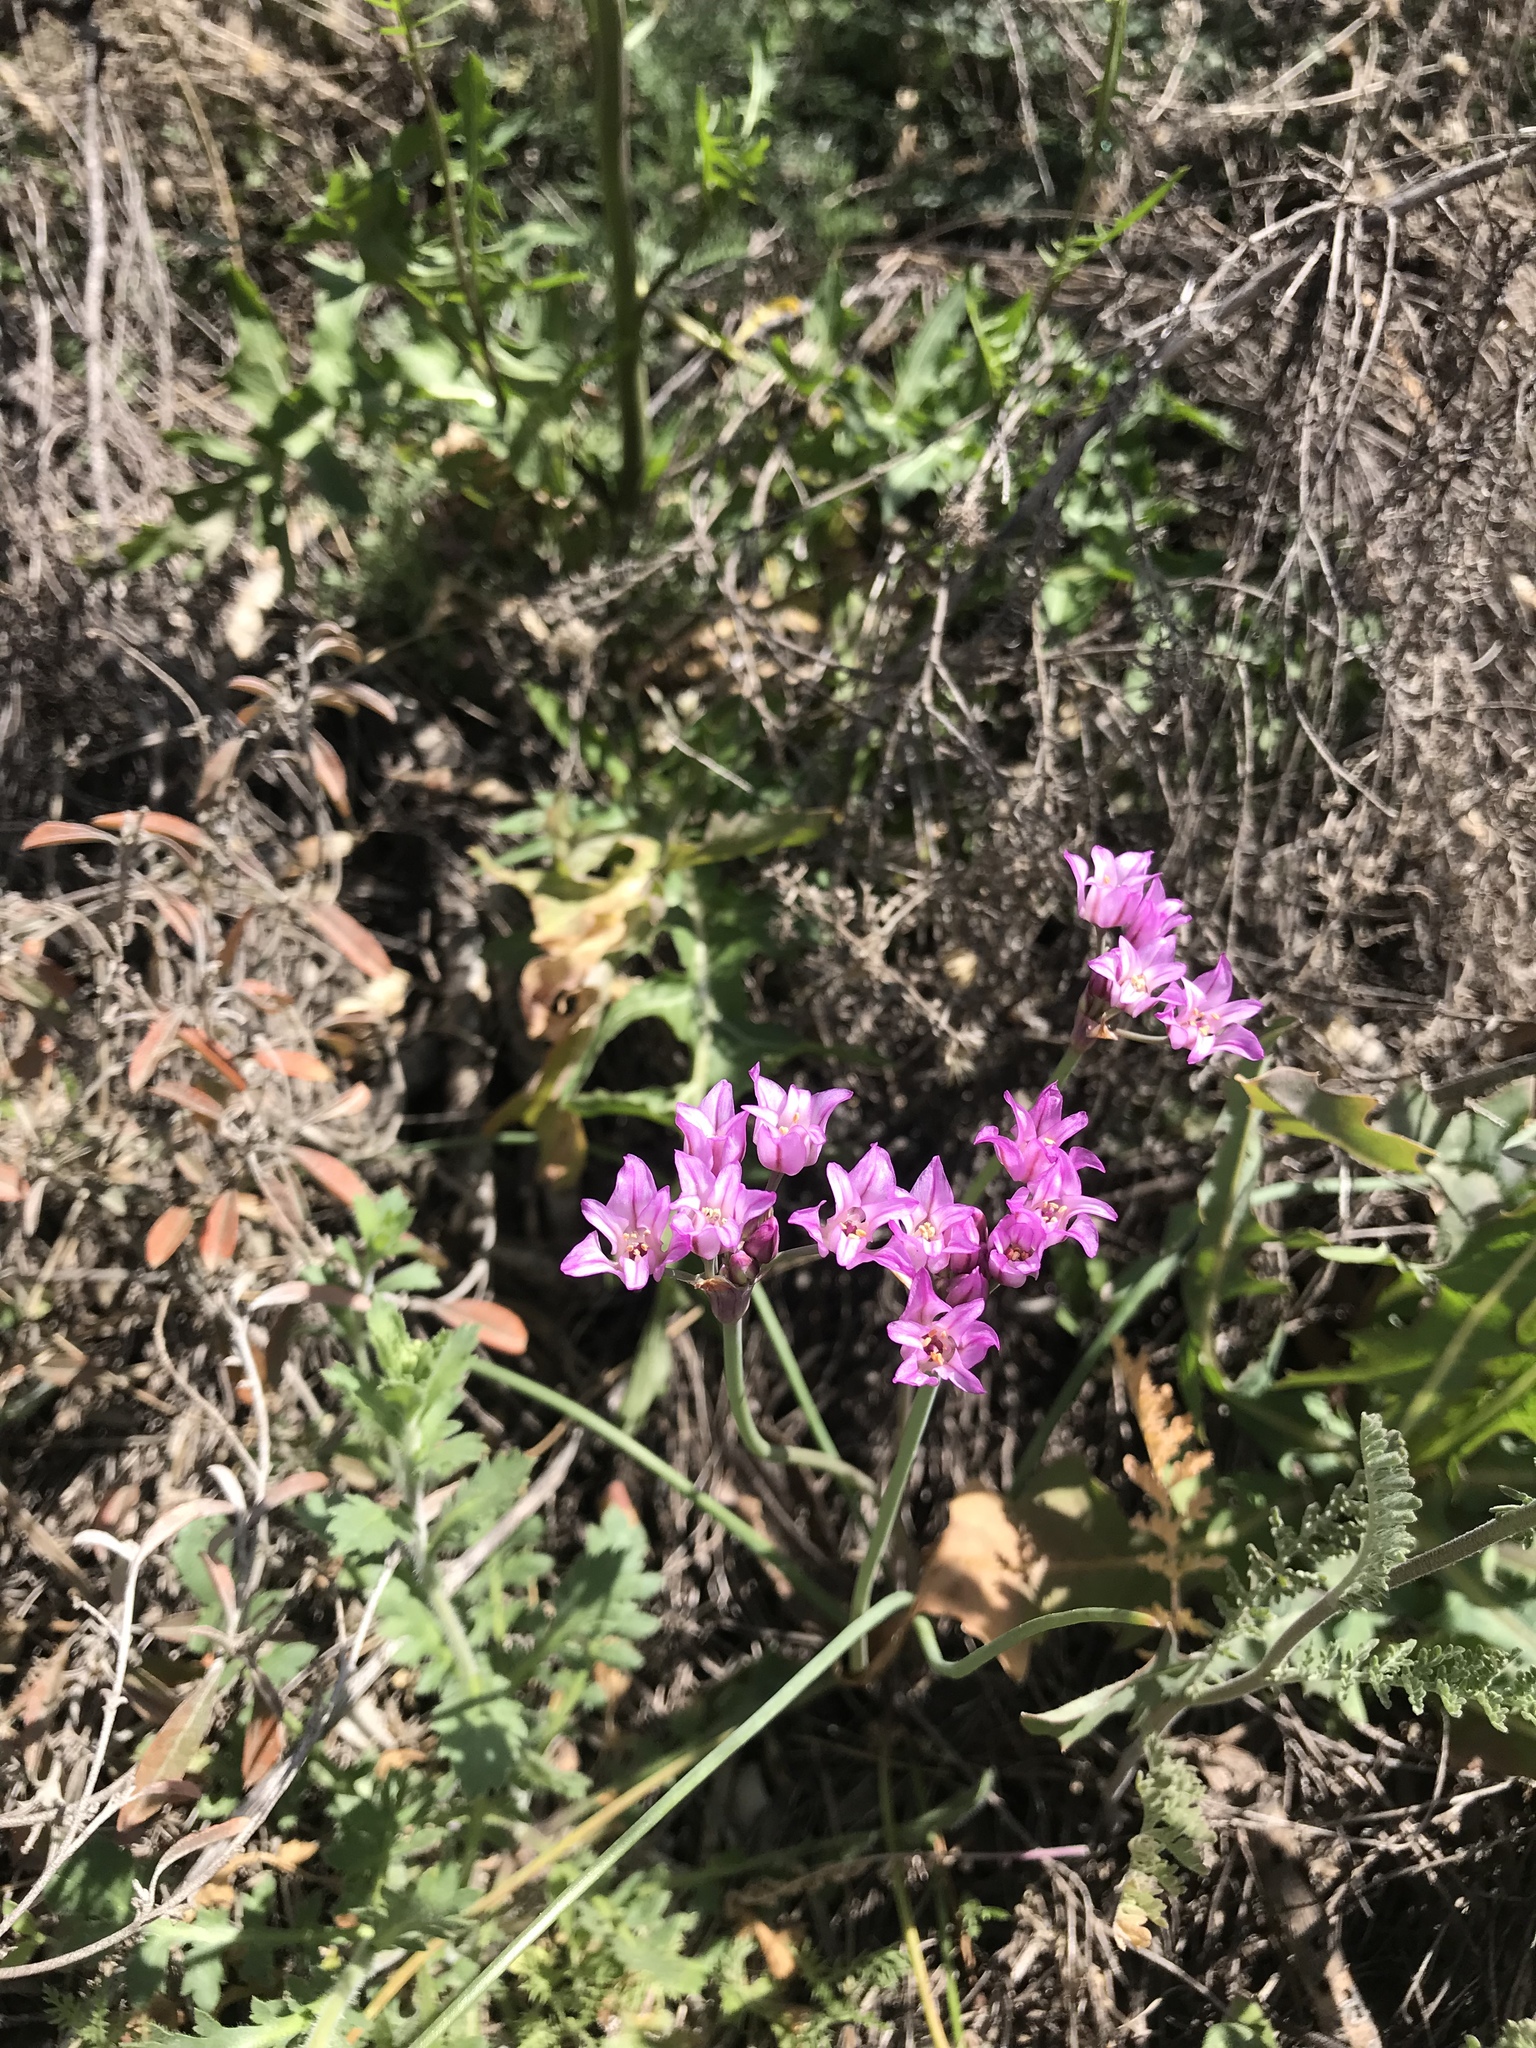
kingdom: Plantae
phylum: Tracheophyta
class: Liliopsida
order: Asparagales
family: Amaryllidaceae
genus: Allium
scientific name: Allium perdulce
